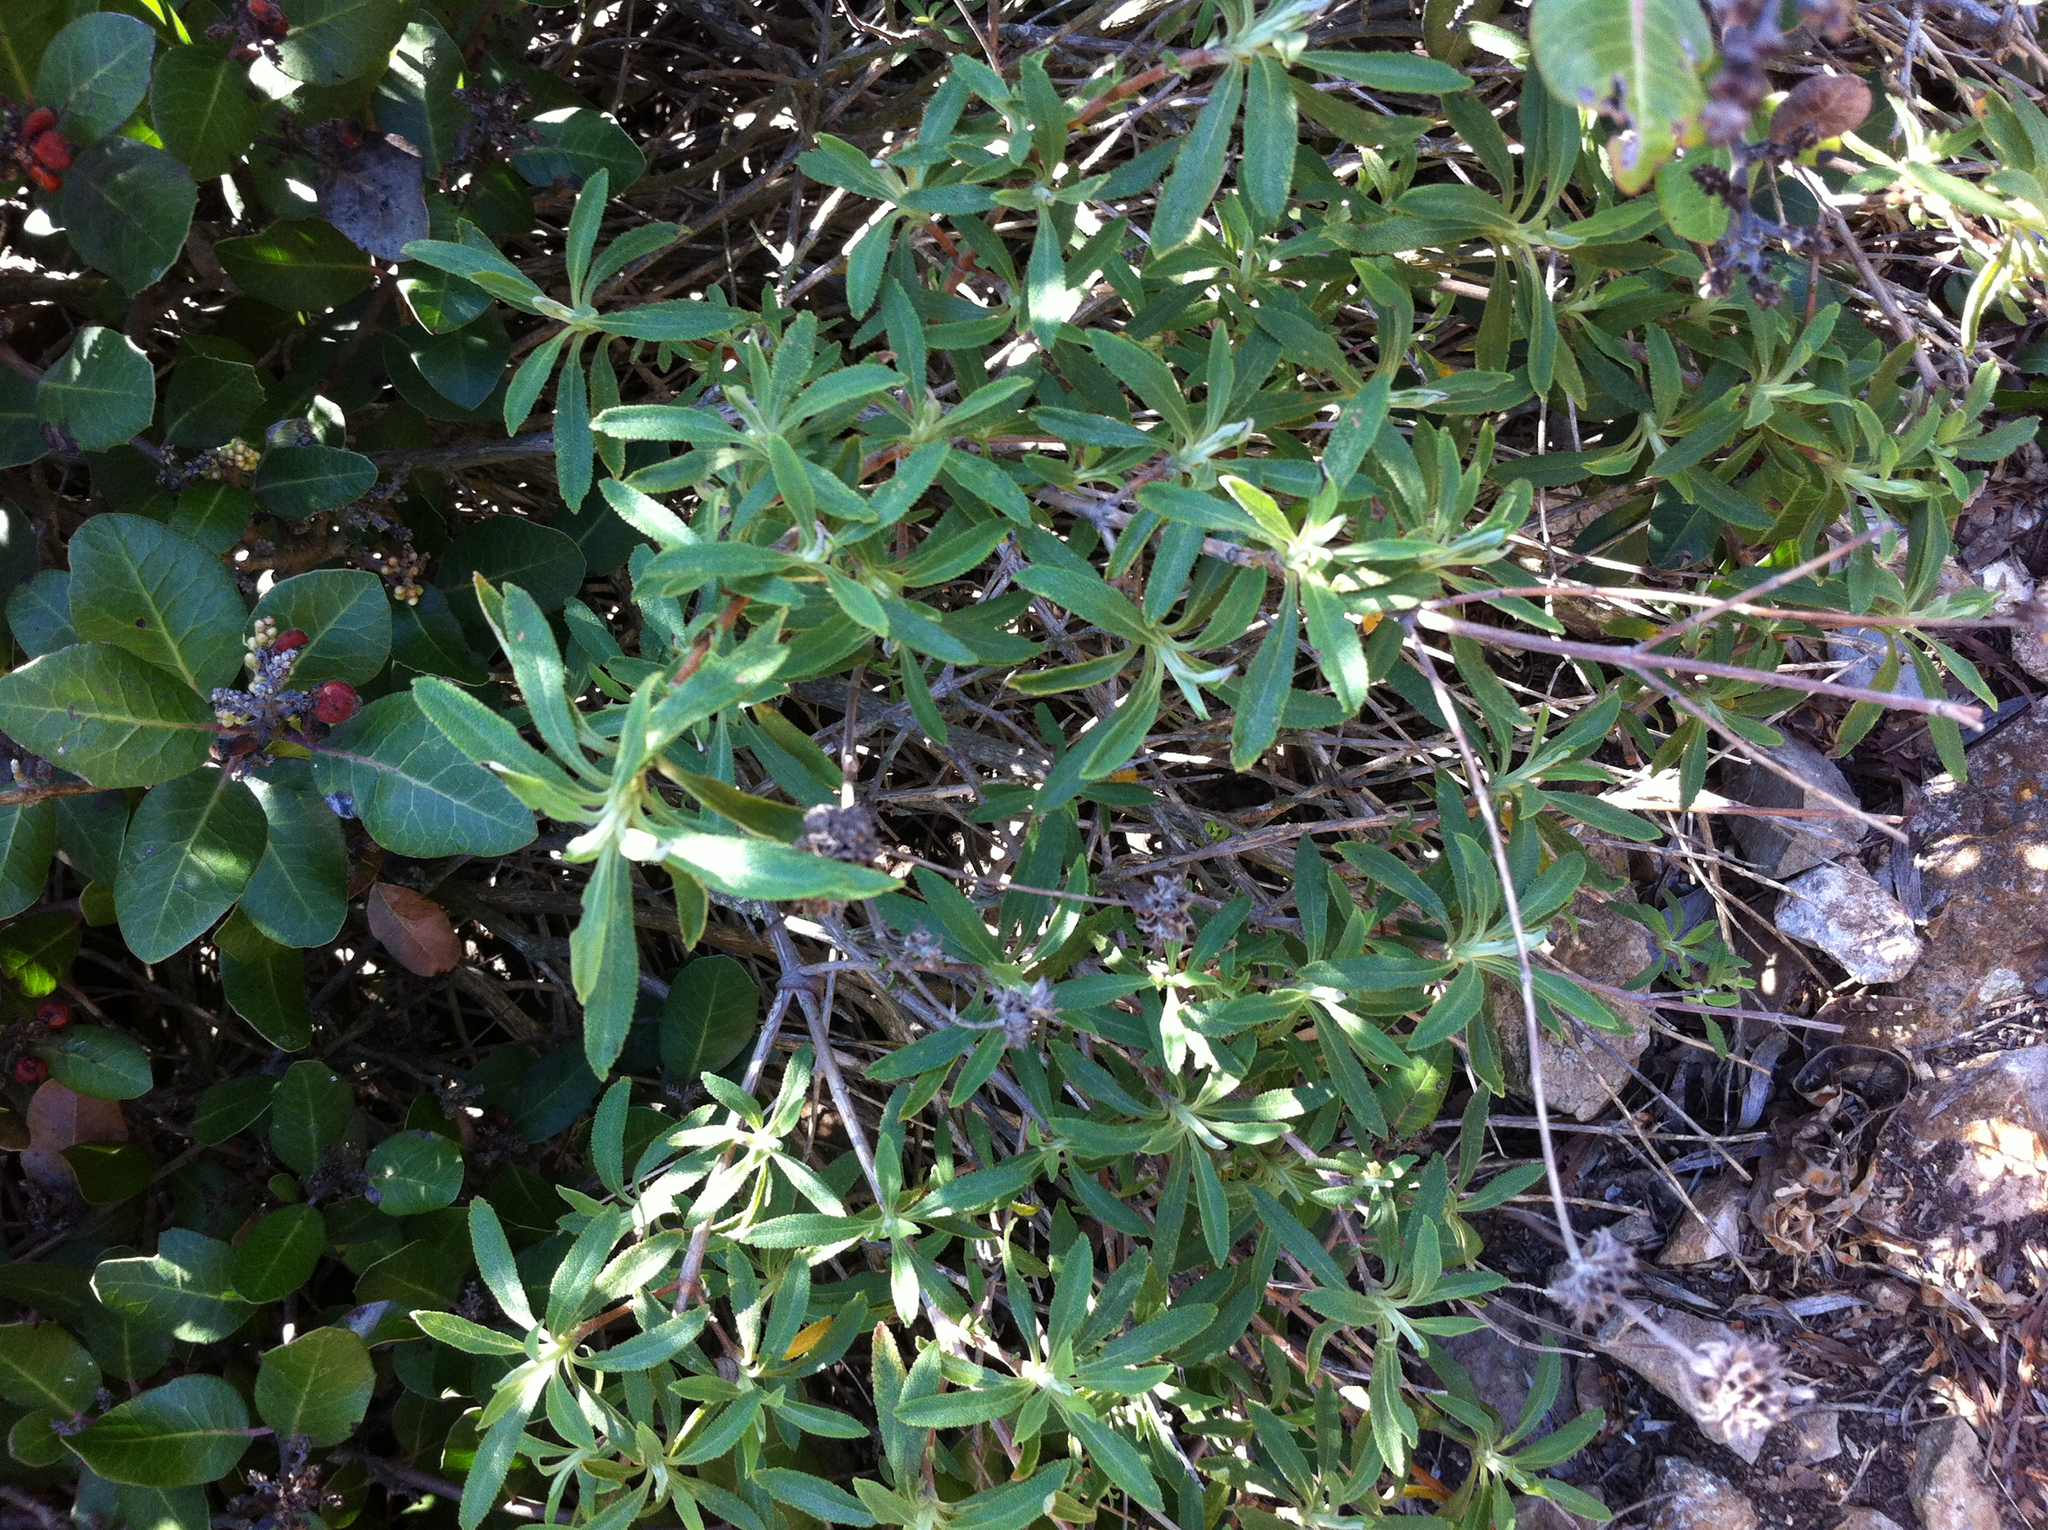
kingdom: Plantae
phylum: Tracheophyta
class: Magnoliopsida
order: Lamiales
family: Lamiaceae
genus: Salvia
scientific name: Salvia mellifera
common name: Black sage
